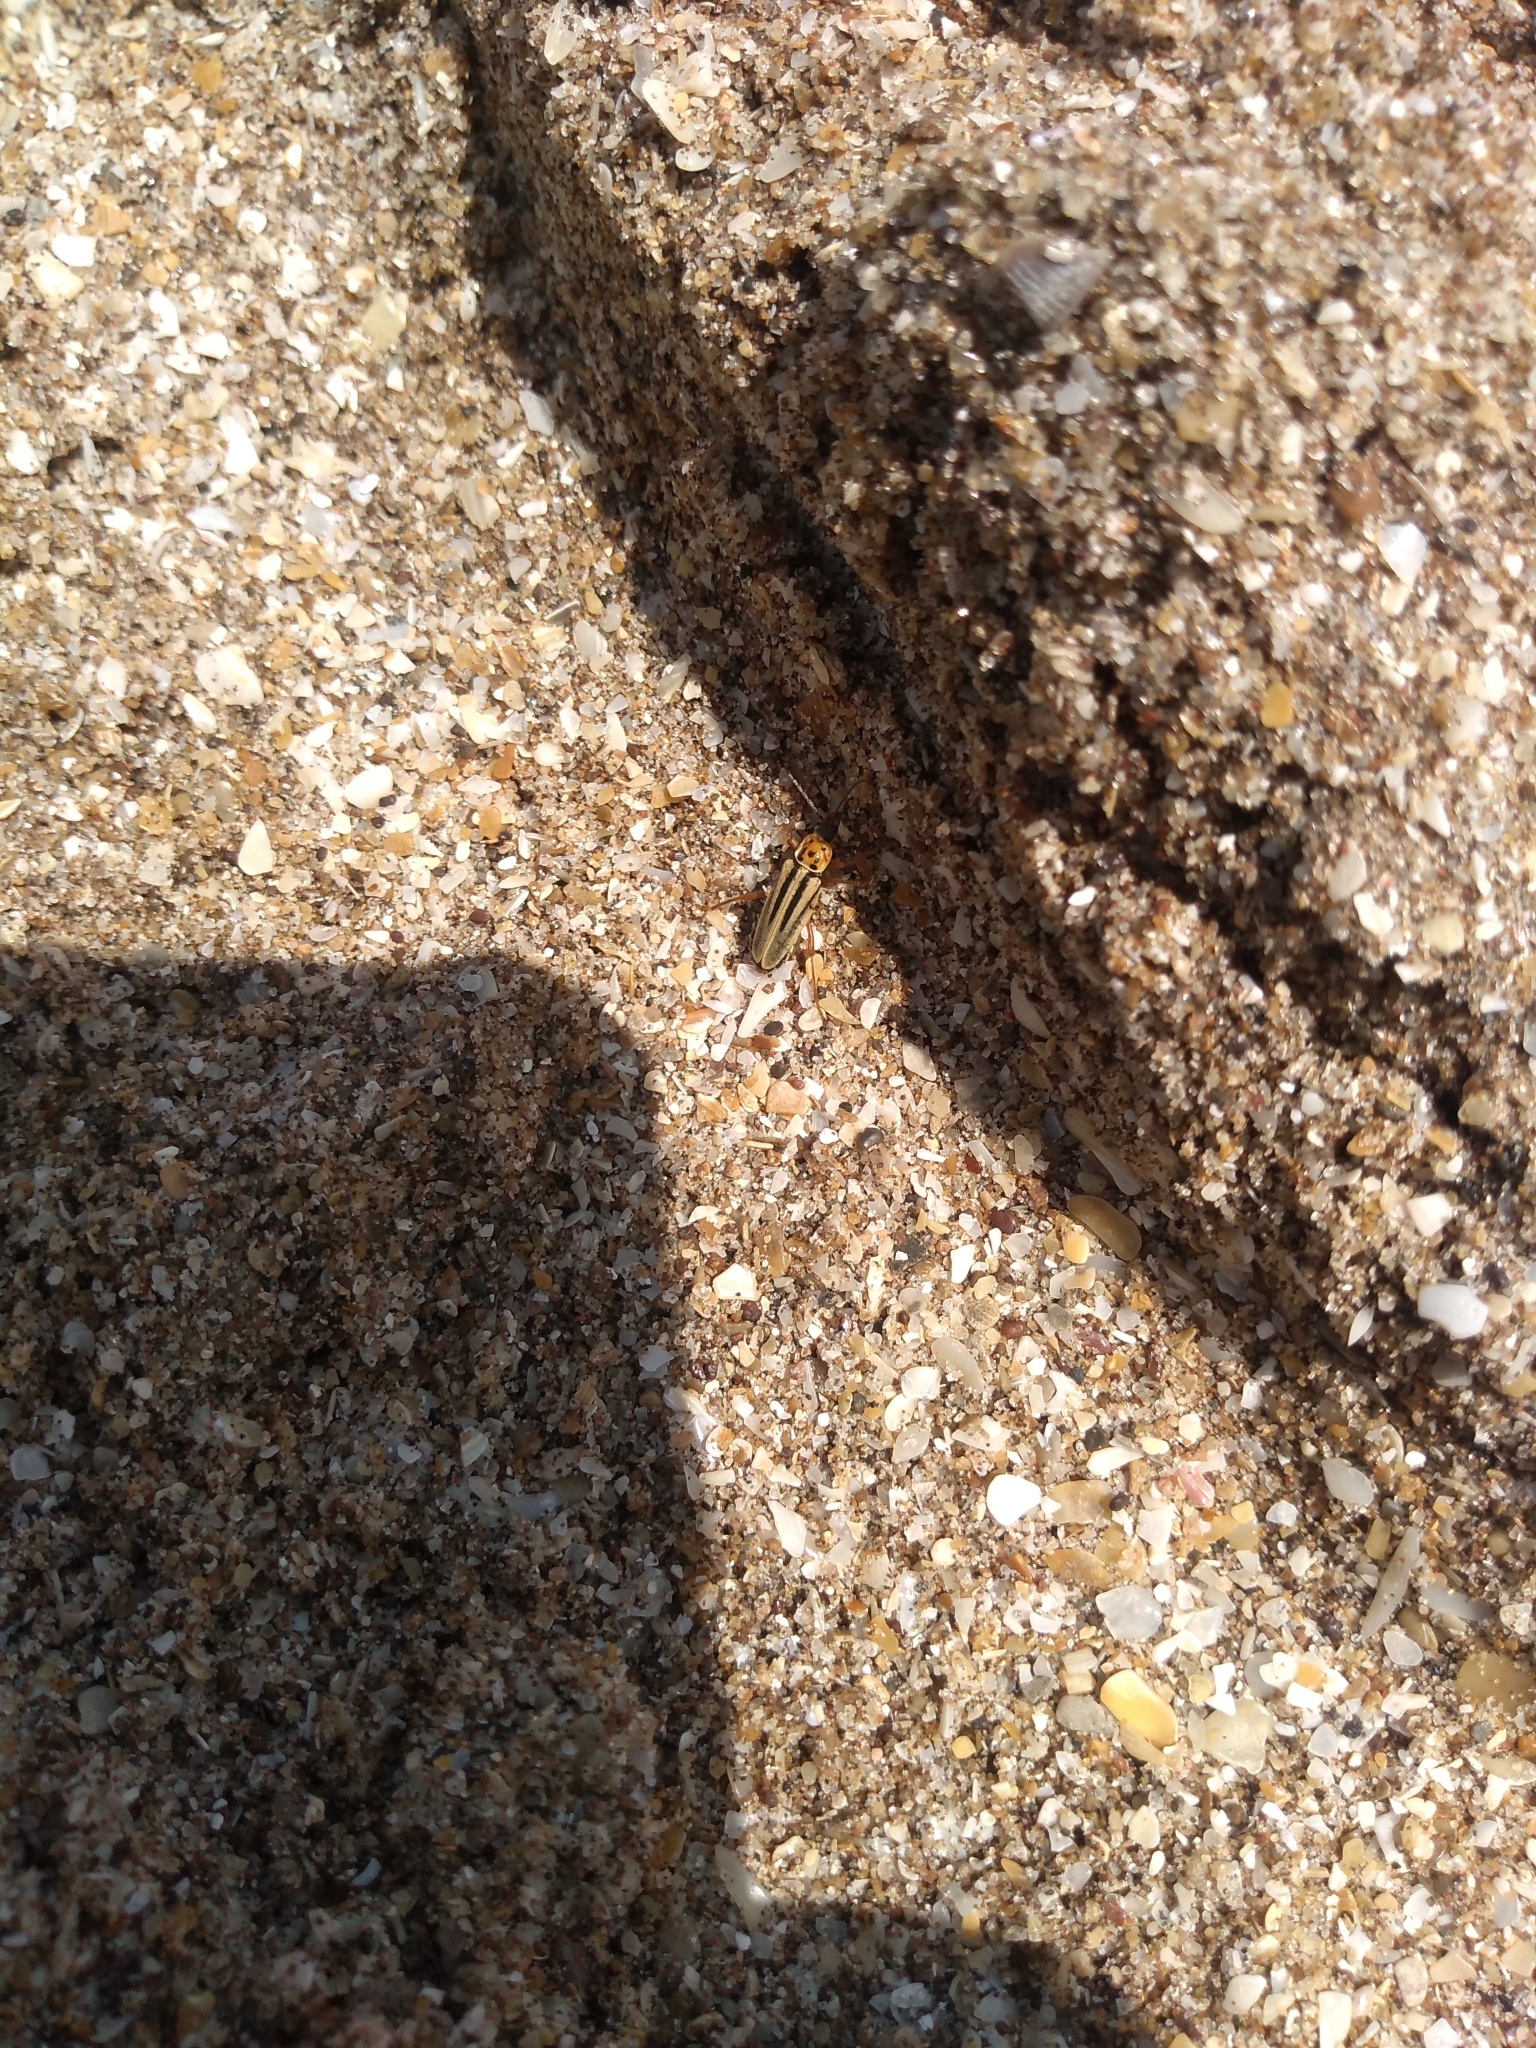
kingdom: Animalia
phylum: Arthropoda
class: Insecta
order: Coleoptera
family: Cantharidae
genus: Chauliognathus
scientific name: Chauliognathus
